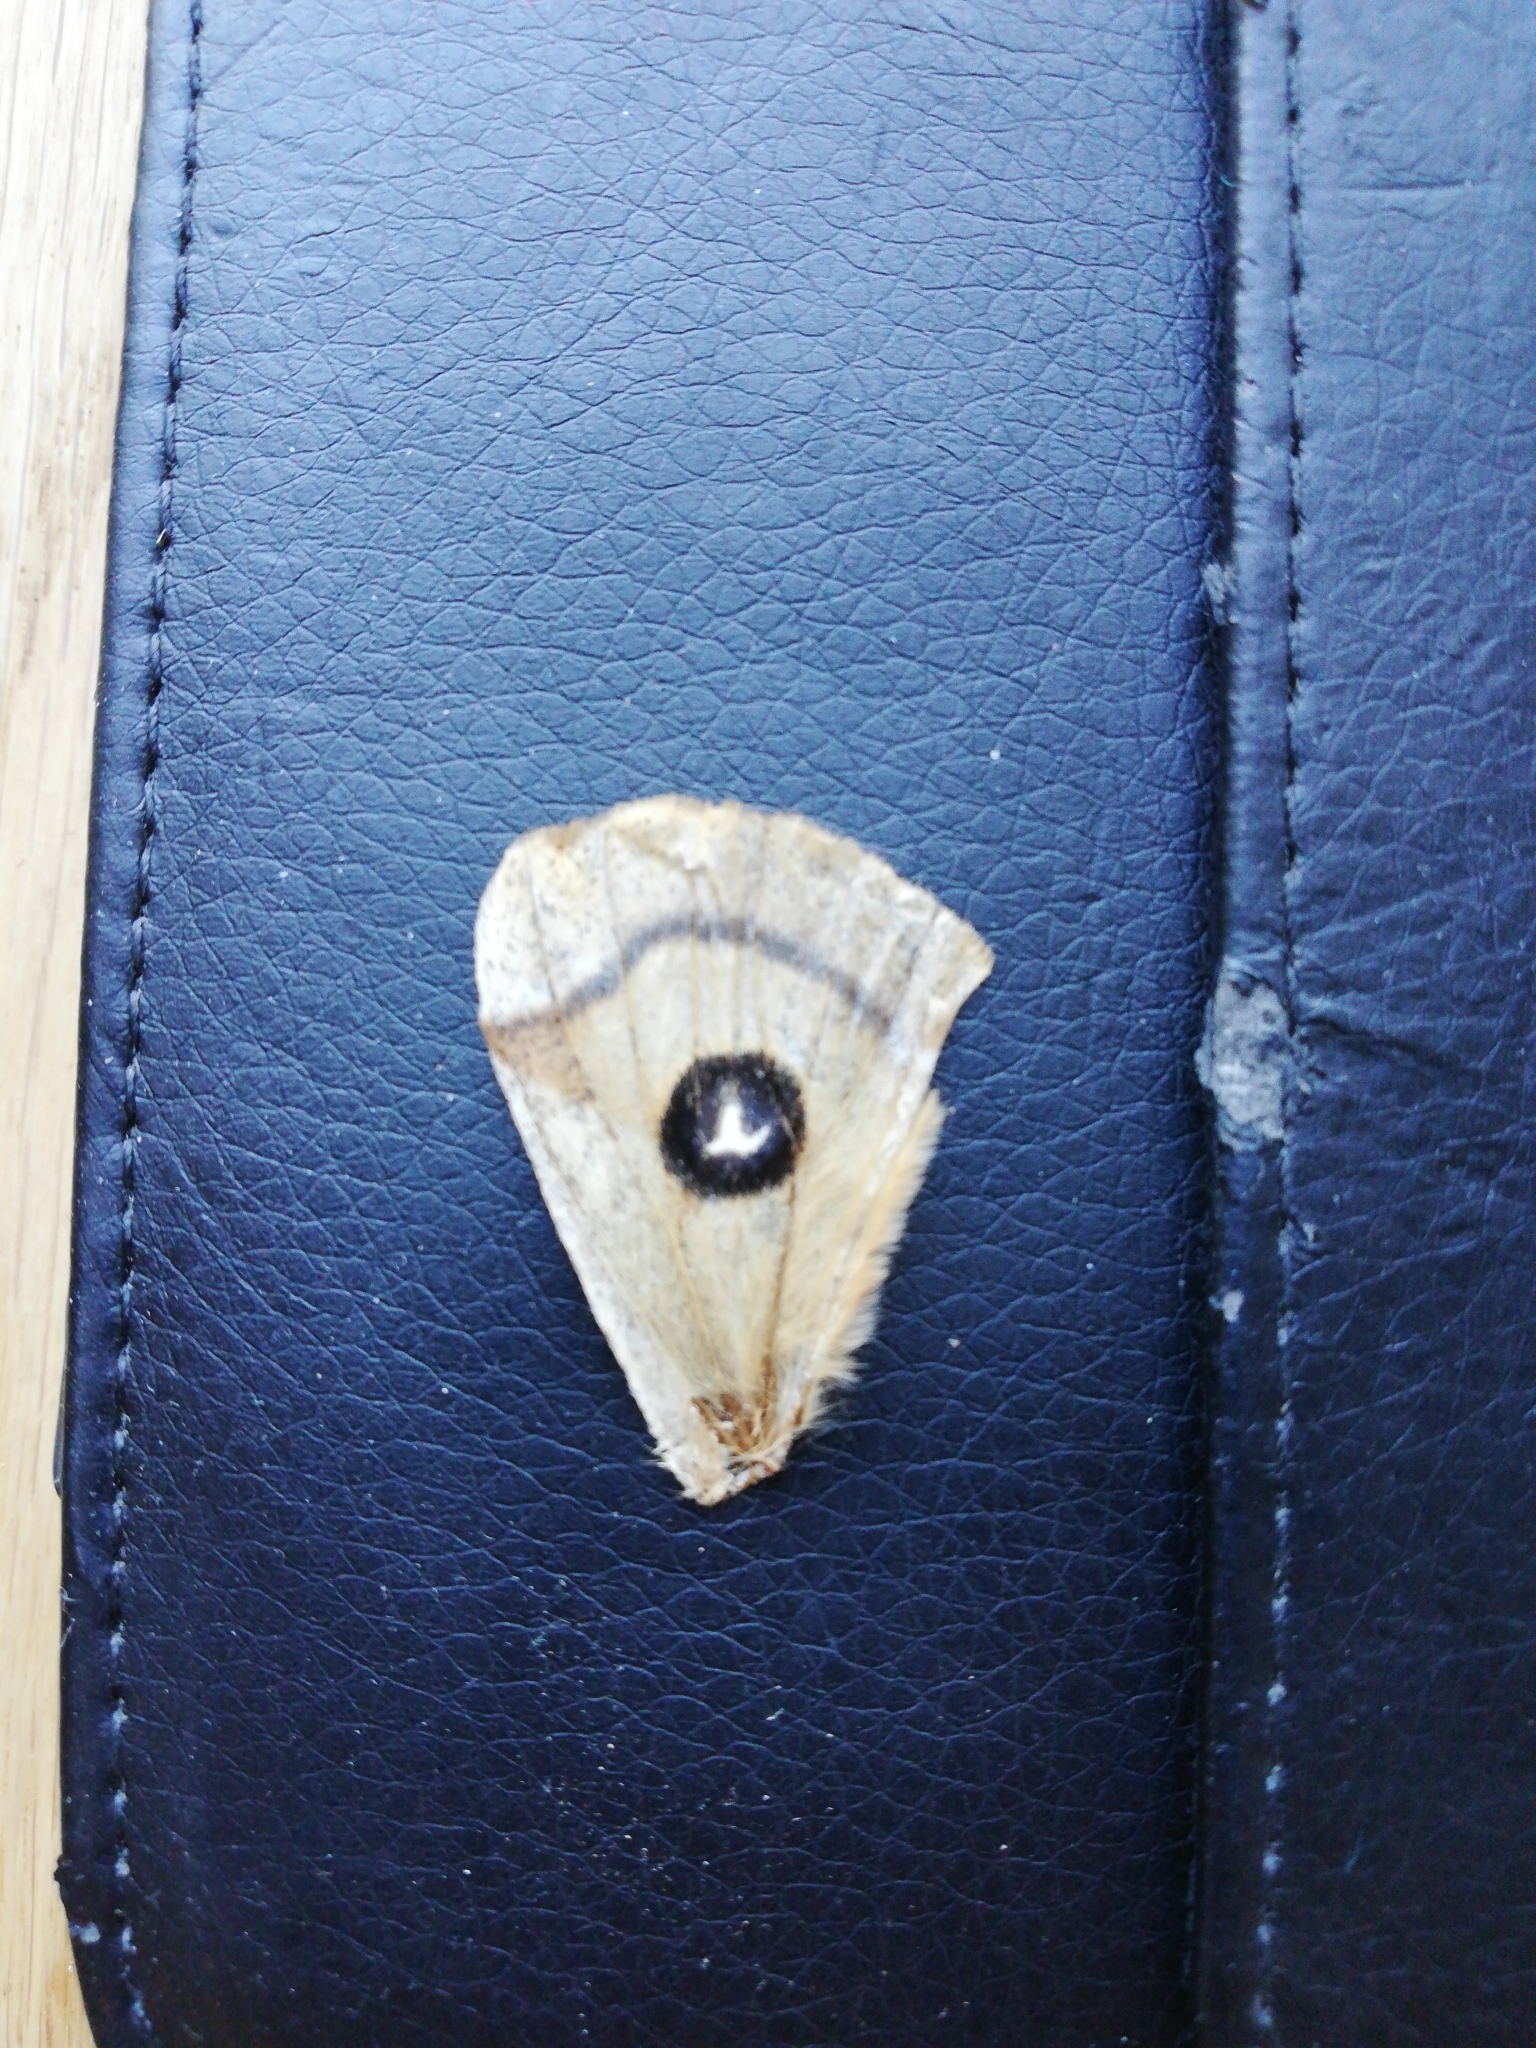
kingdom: Animalia
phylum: Arthropoda
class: Insecta
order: Lepidoptera
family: Saturniidae
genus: Aglia
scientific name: Aglia tau
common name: Tau emperor
